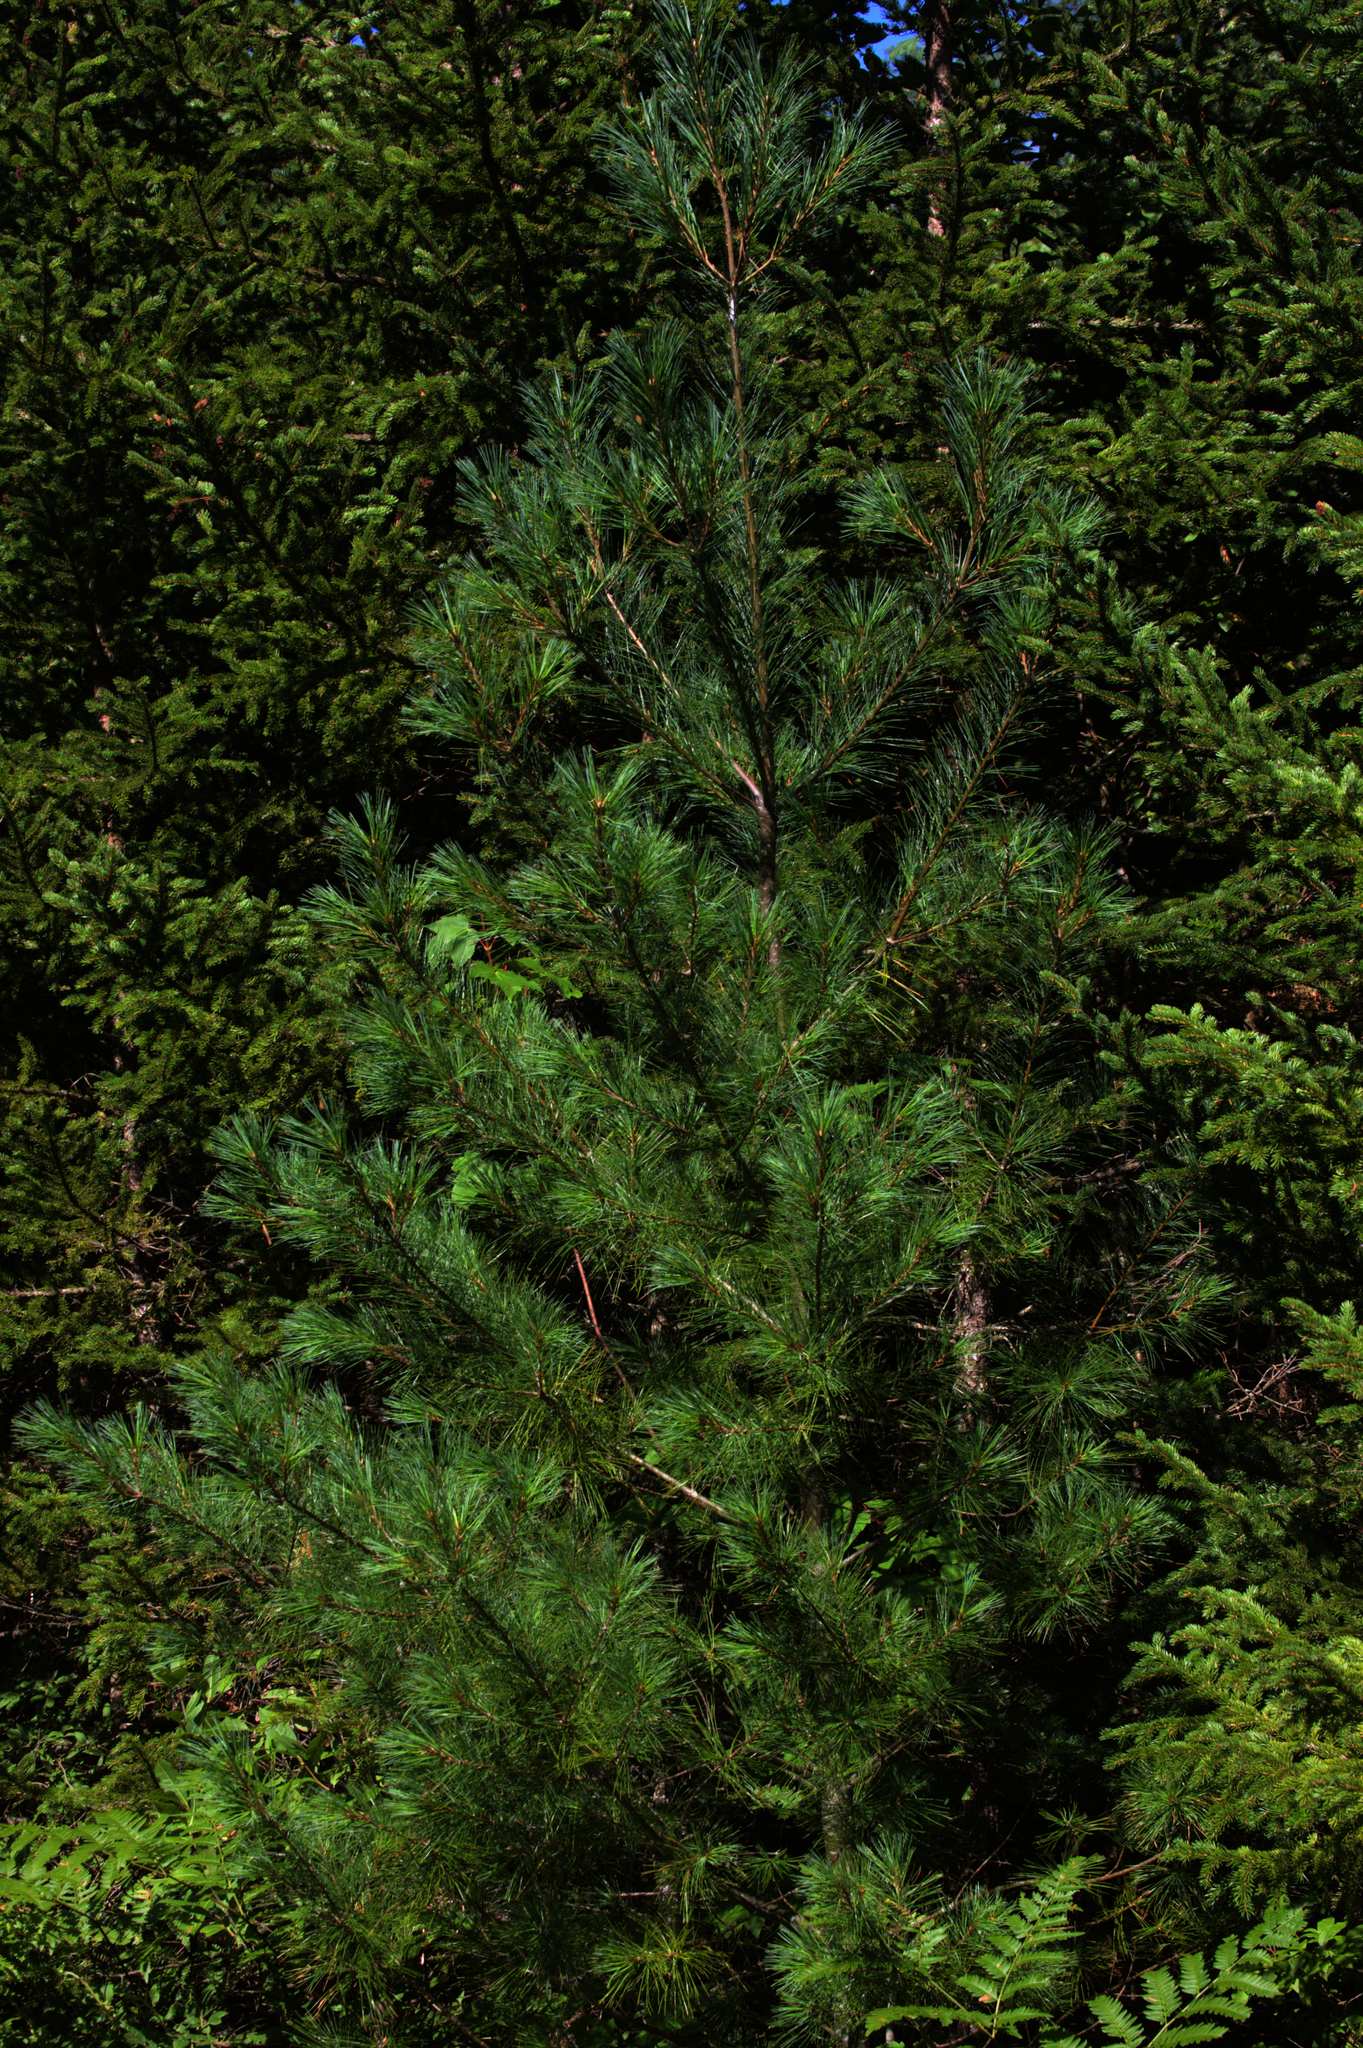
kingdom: Plantae
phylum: Tracheophyta
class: Pinopsida
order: Pinales
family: Pinaceae
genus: Pinus
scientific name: Pinus strobus
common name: Weymouth pine
